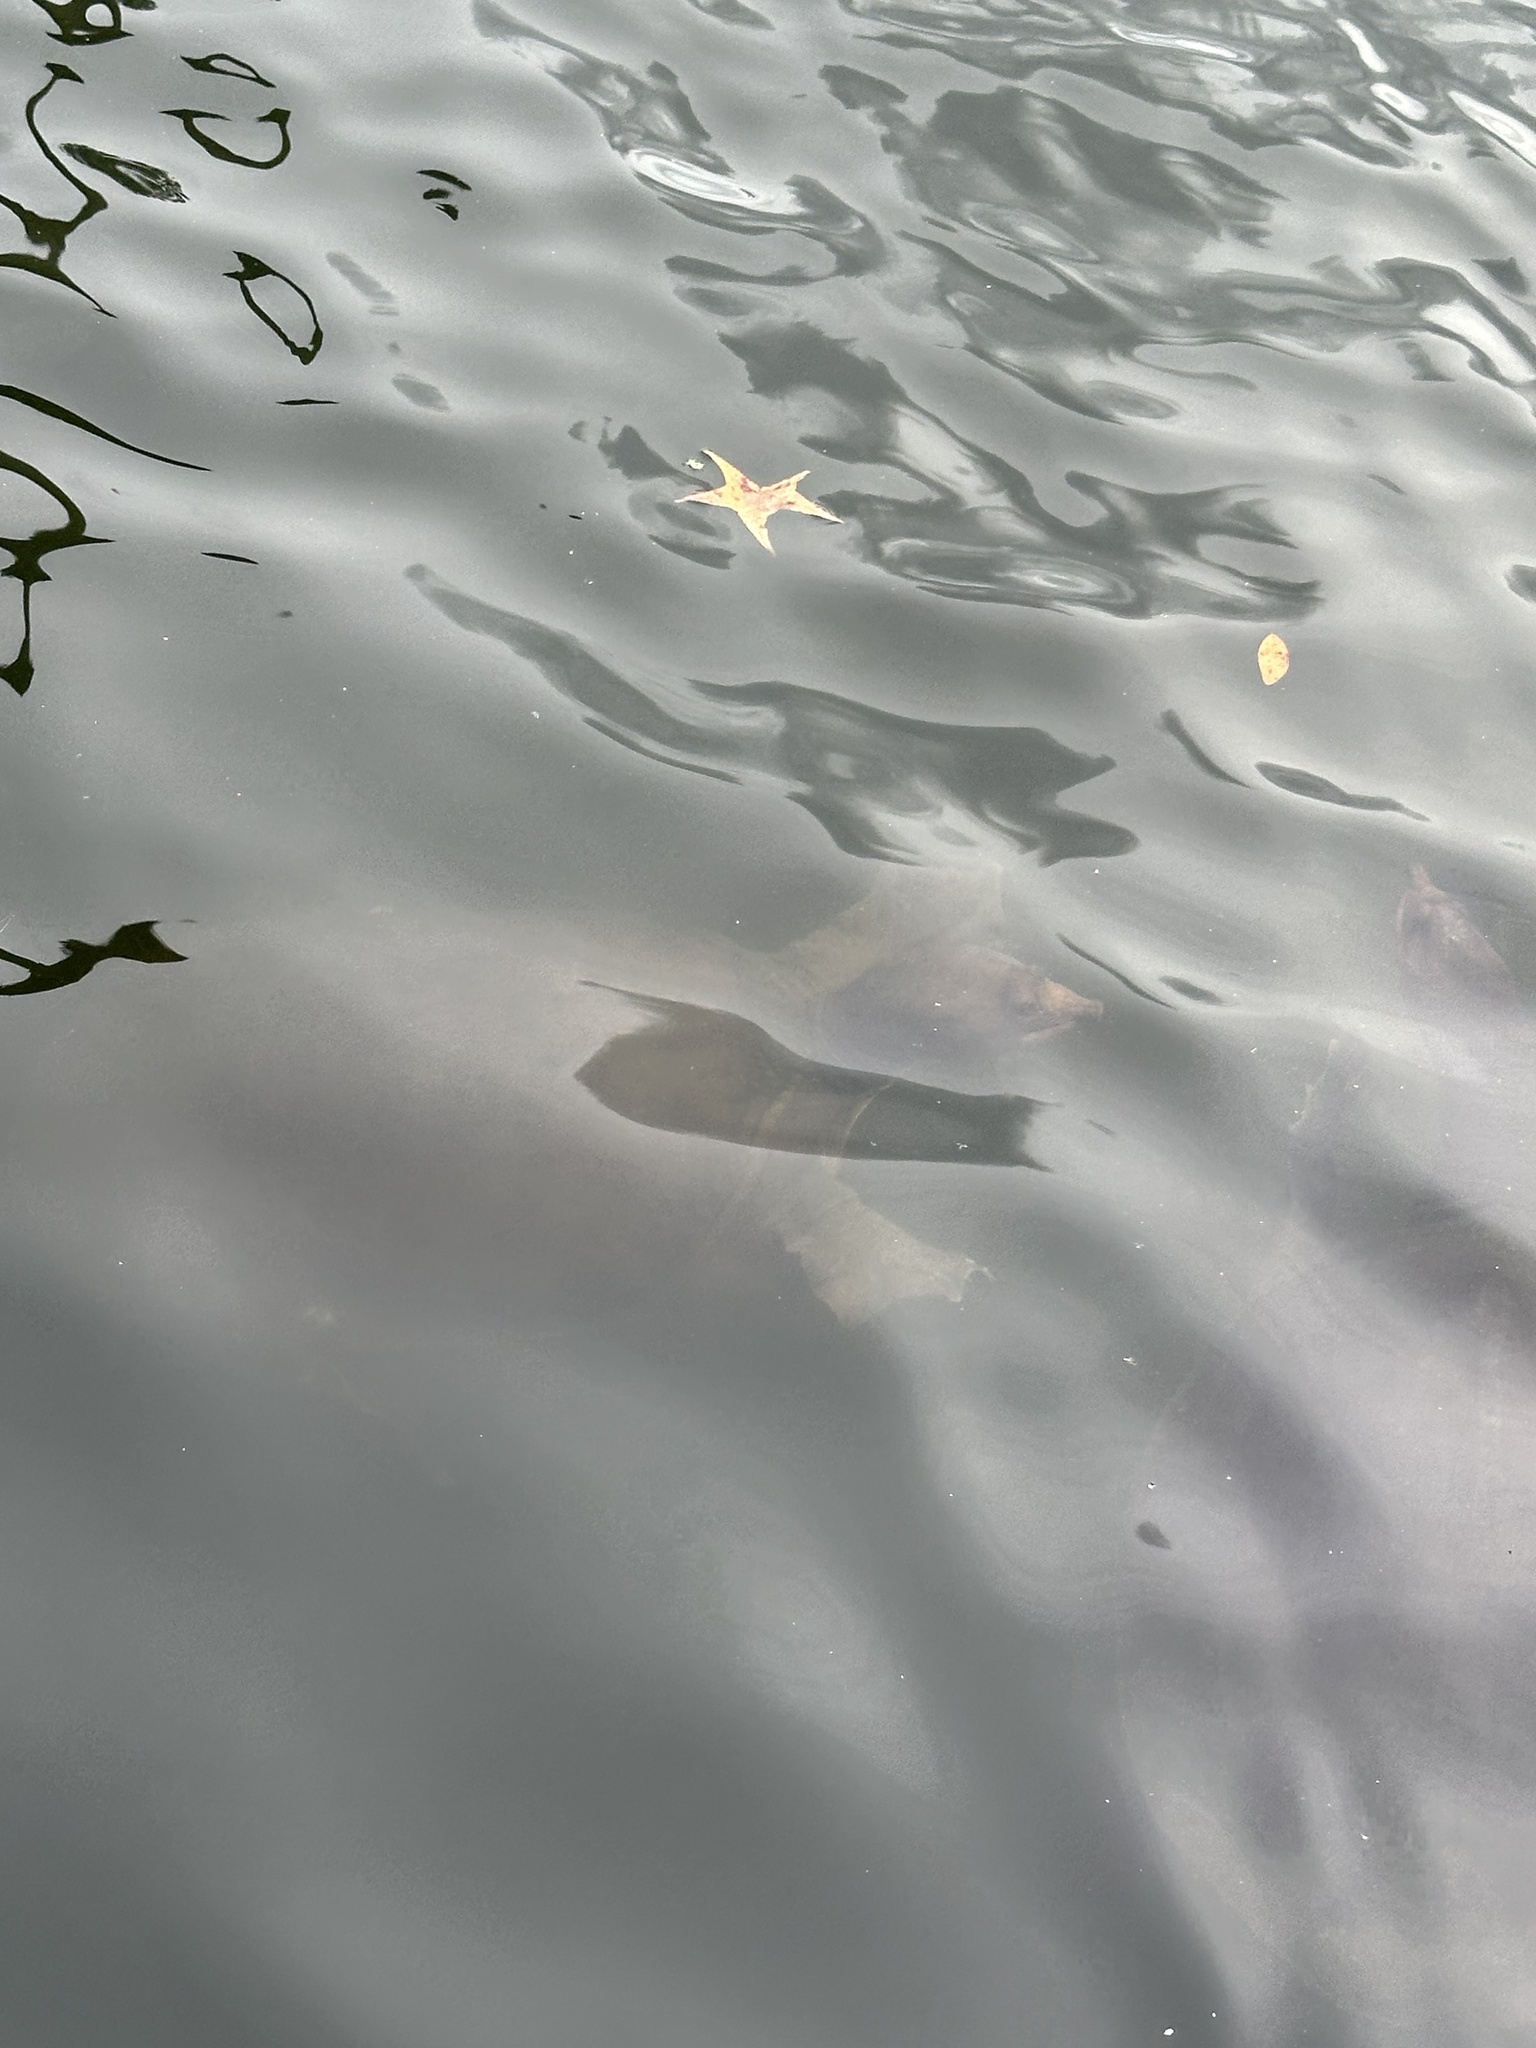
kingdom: Animalia
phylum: Chordata
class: Testudines
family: Trionychidae
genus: Apalone
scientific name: Apalone ferox
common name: Florida softshell turtle
